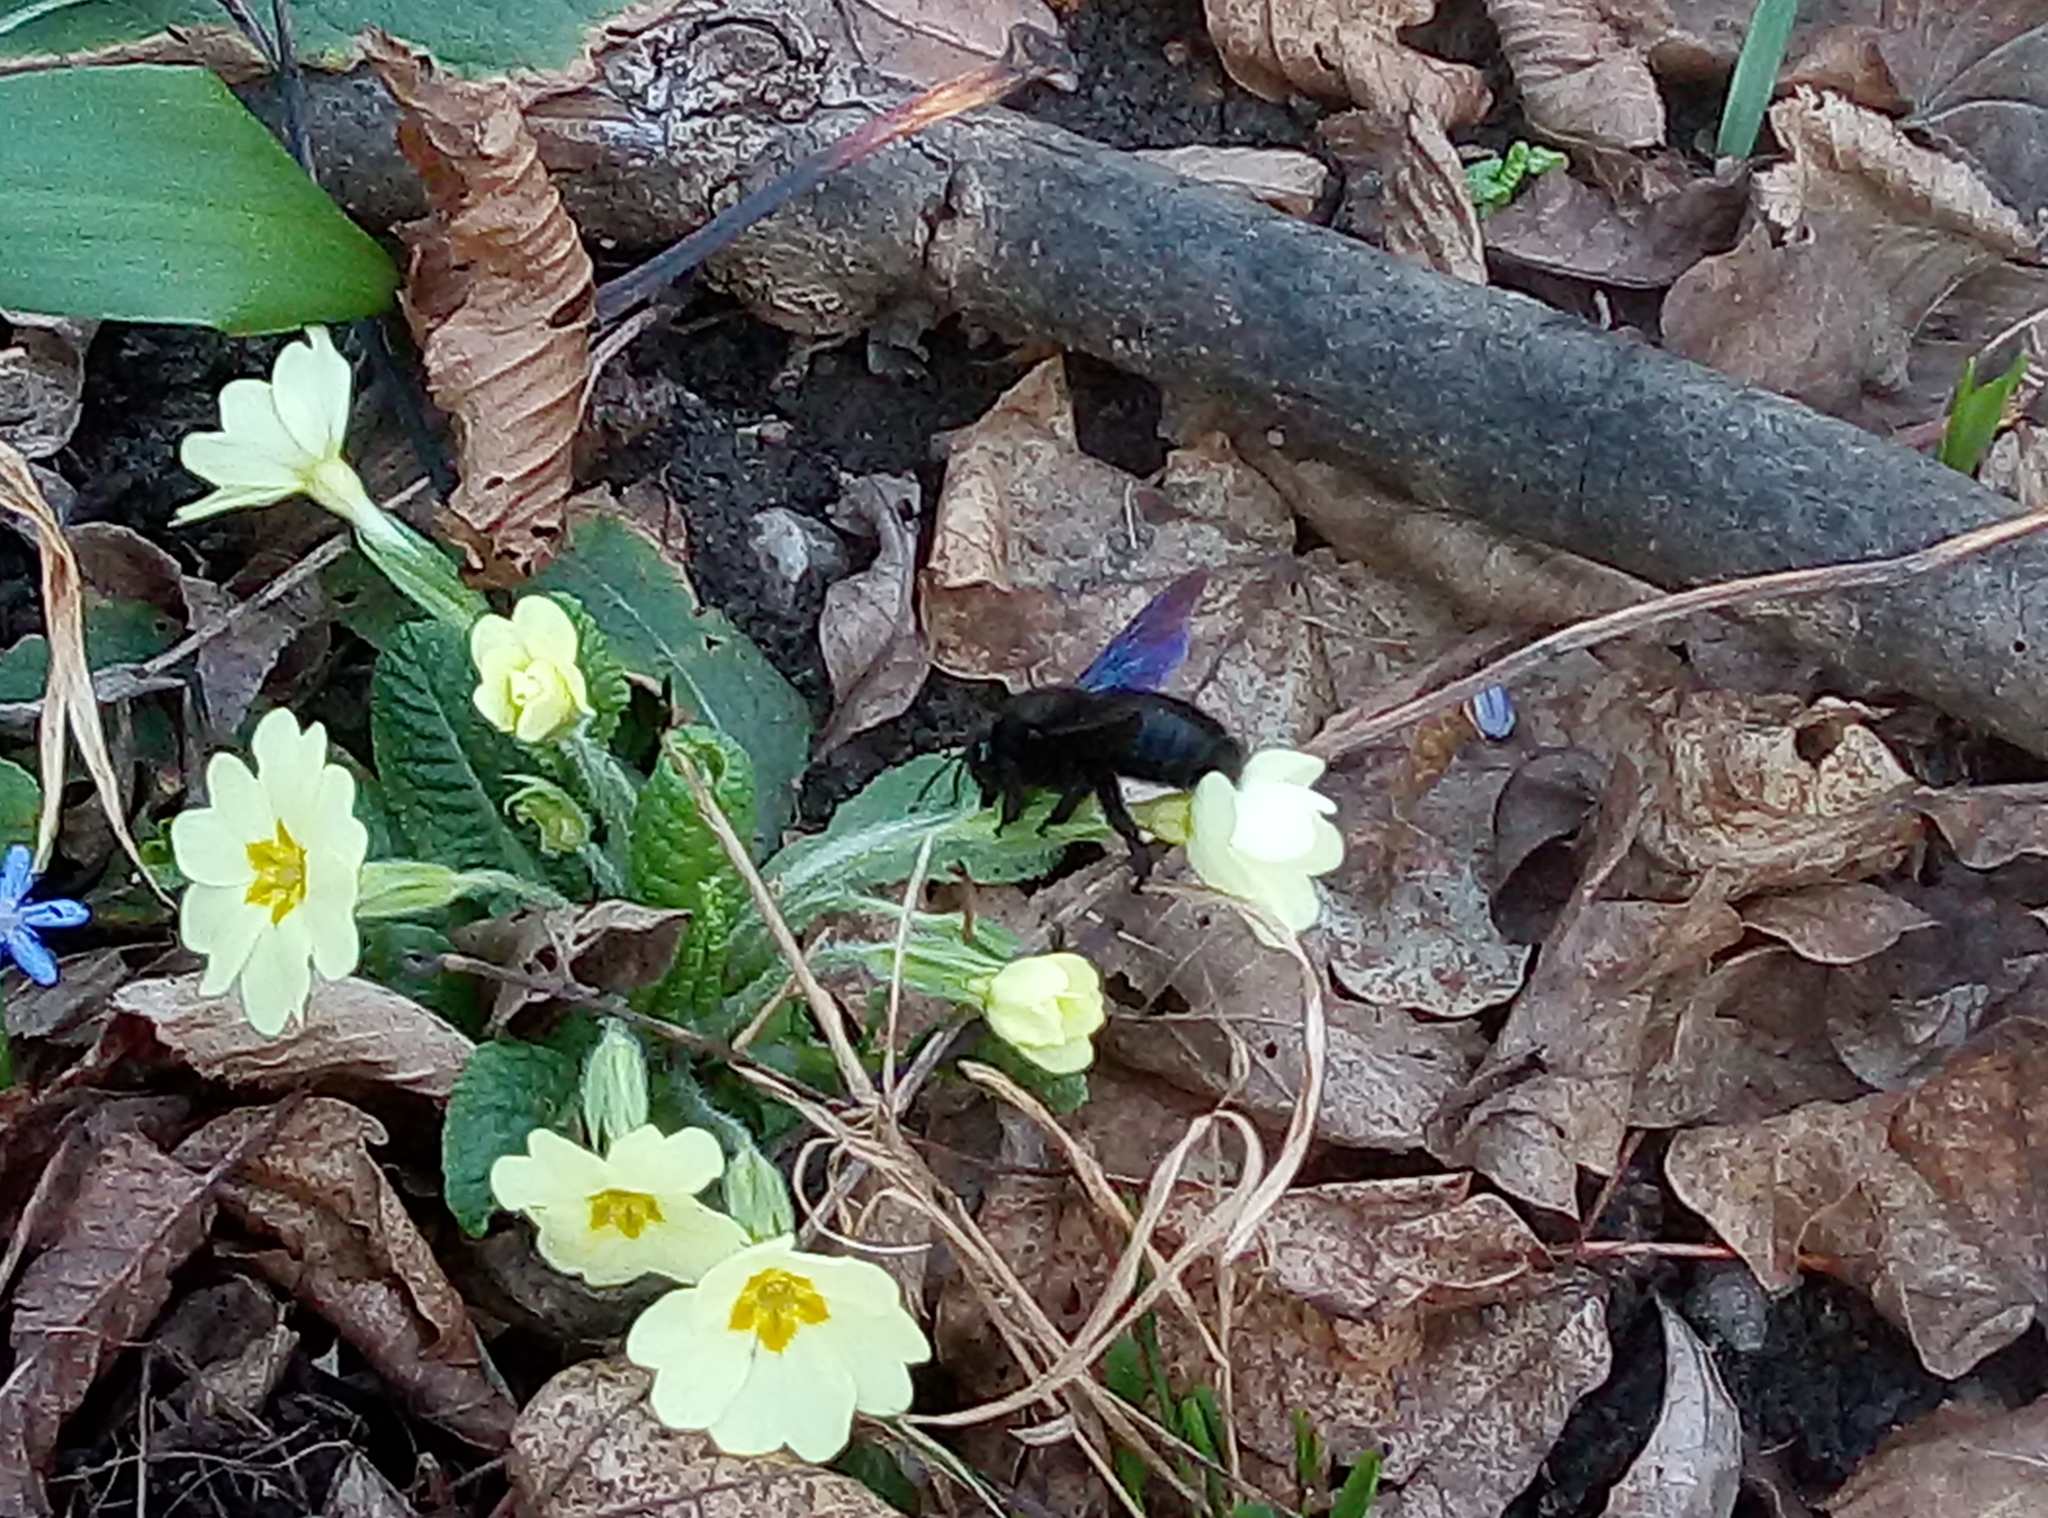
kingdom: Animalia
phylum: Arthropoda
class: Insecta
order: Hymenoptera
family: Apidae
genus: Xylocopa
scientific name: Xylocopa violacea
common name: Violet carpenter bee
